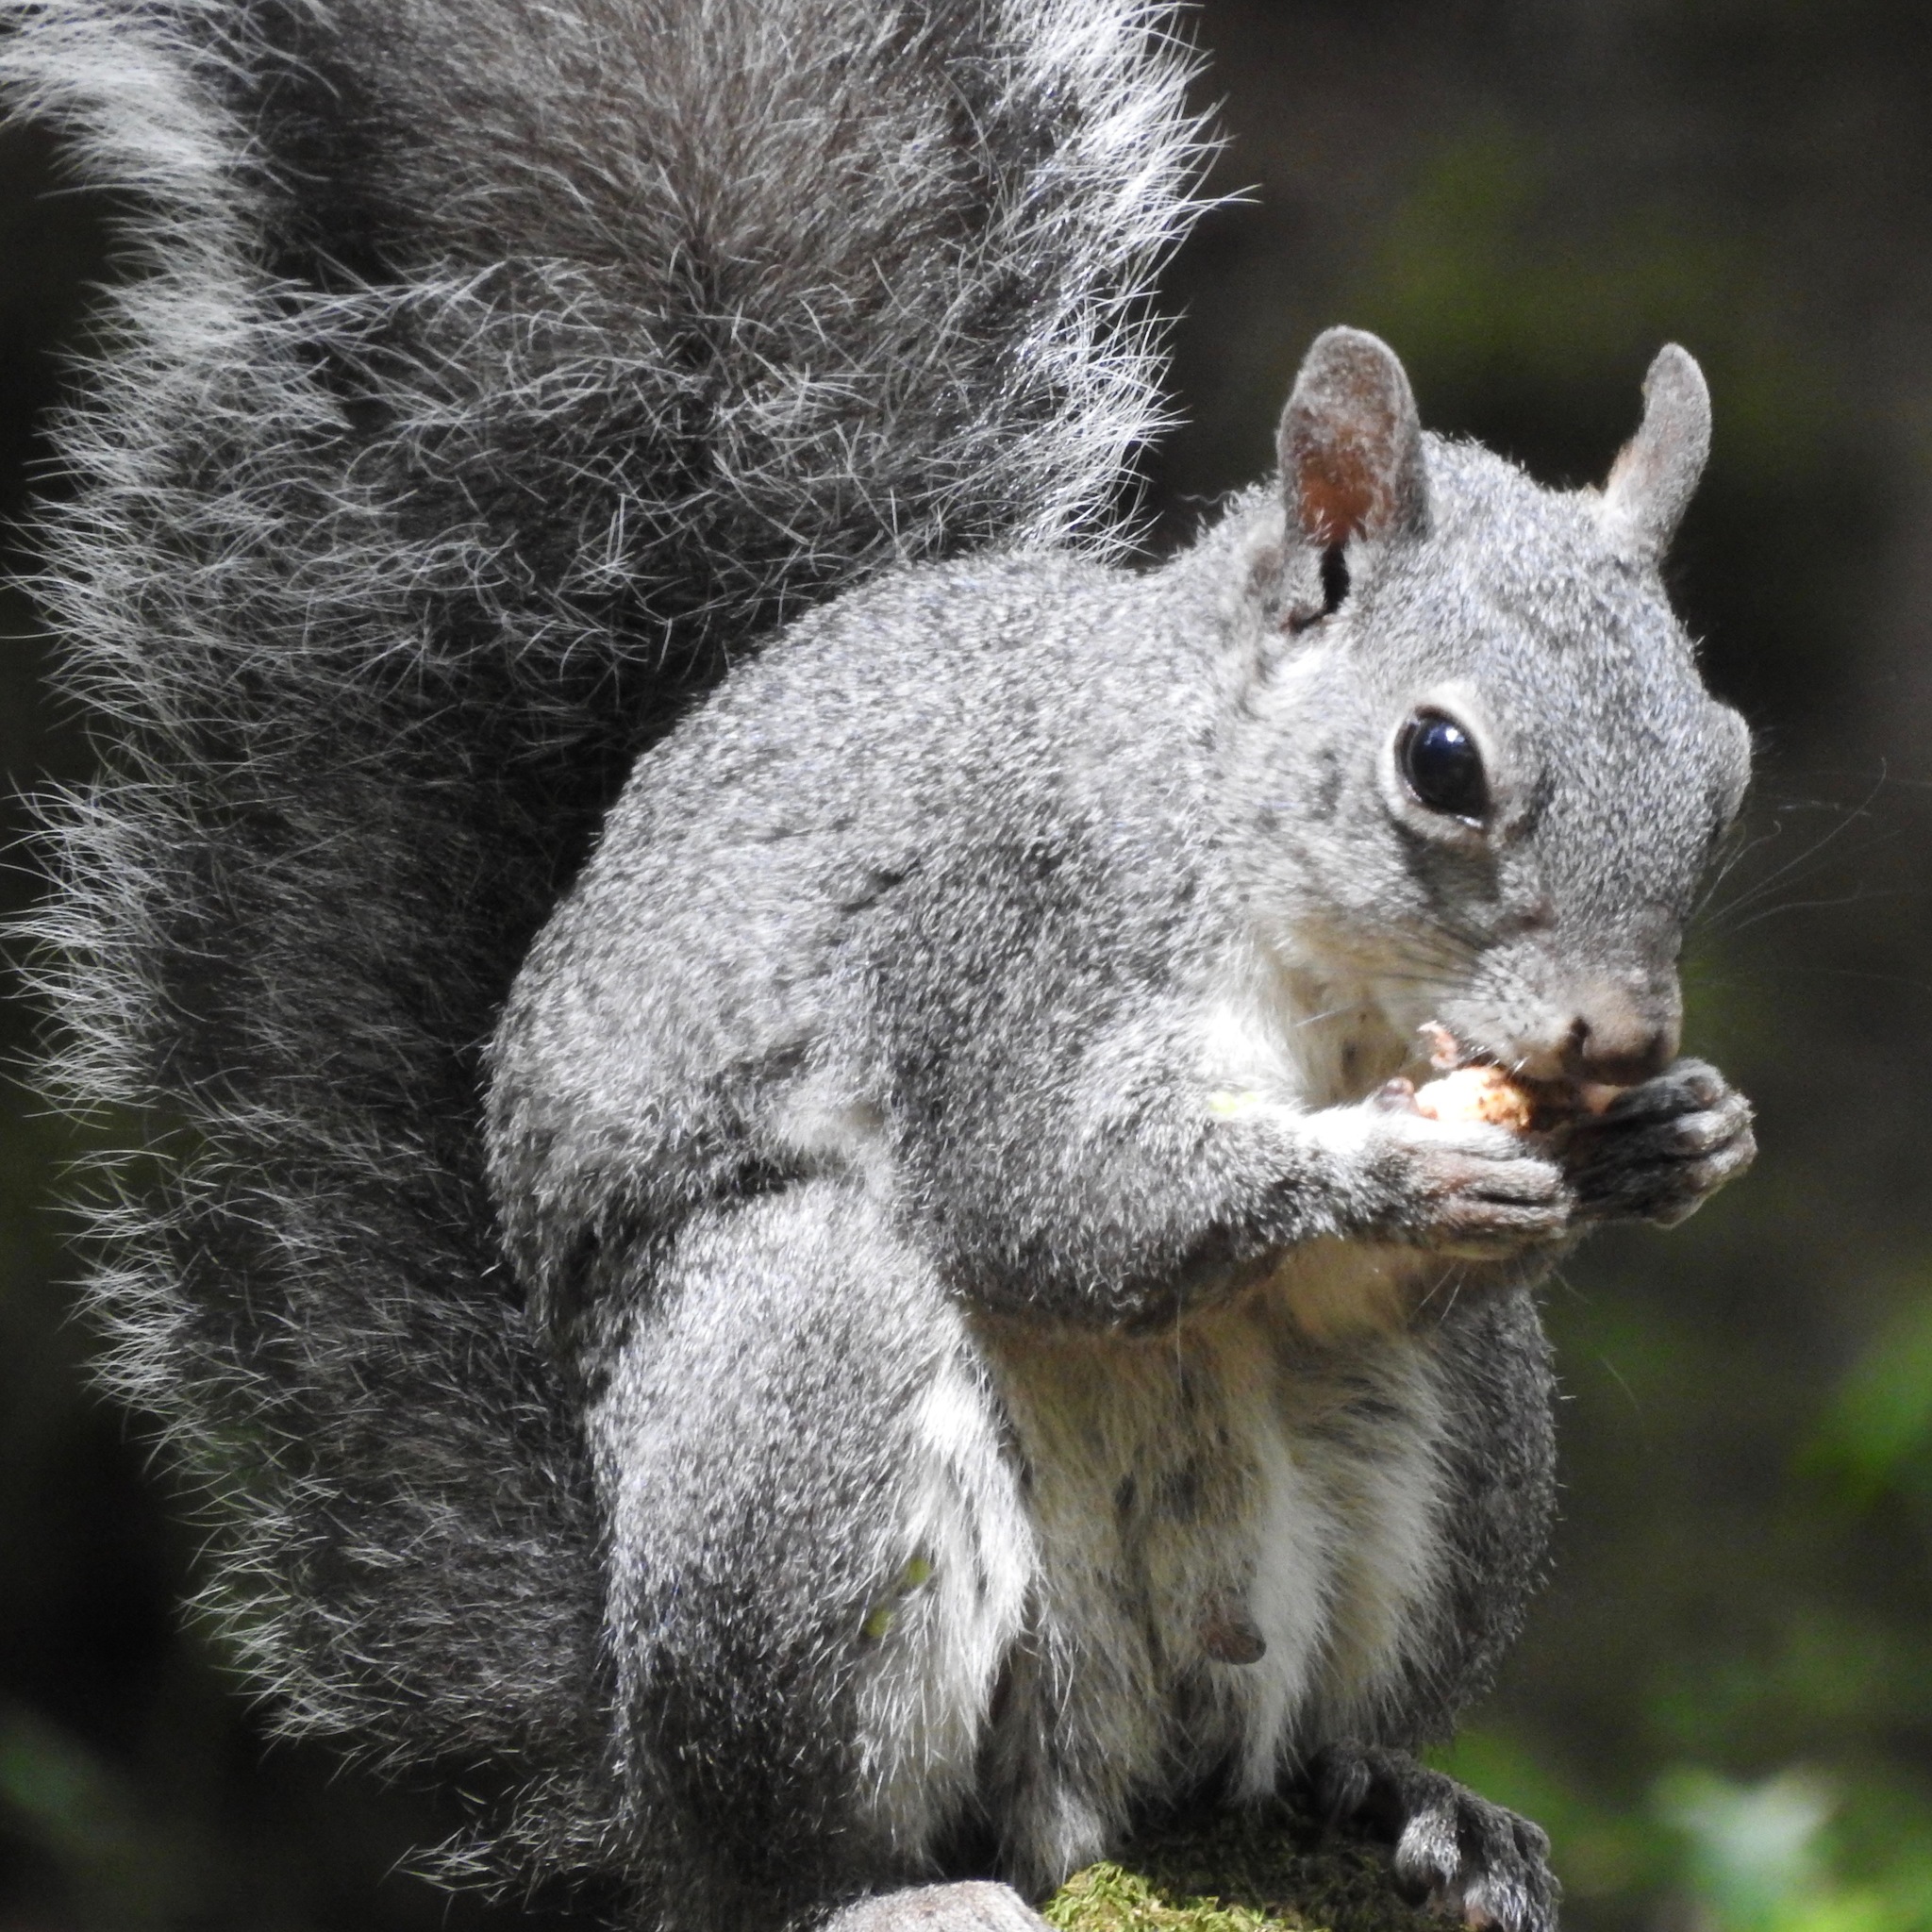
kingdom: Animalia
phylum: Chordata
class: Mammalia
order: Rodentia
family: Sciuridae
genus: Sciurus
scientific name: Sciurus griseus
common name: Western gray squirrel
